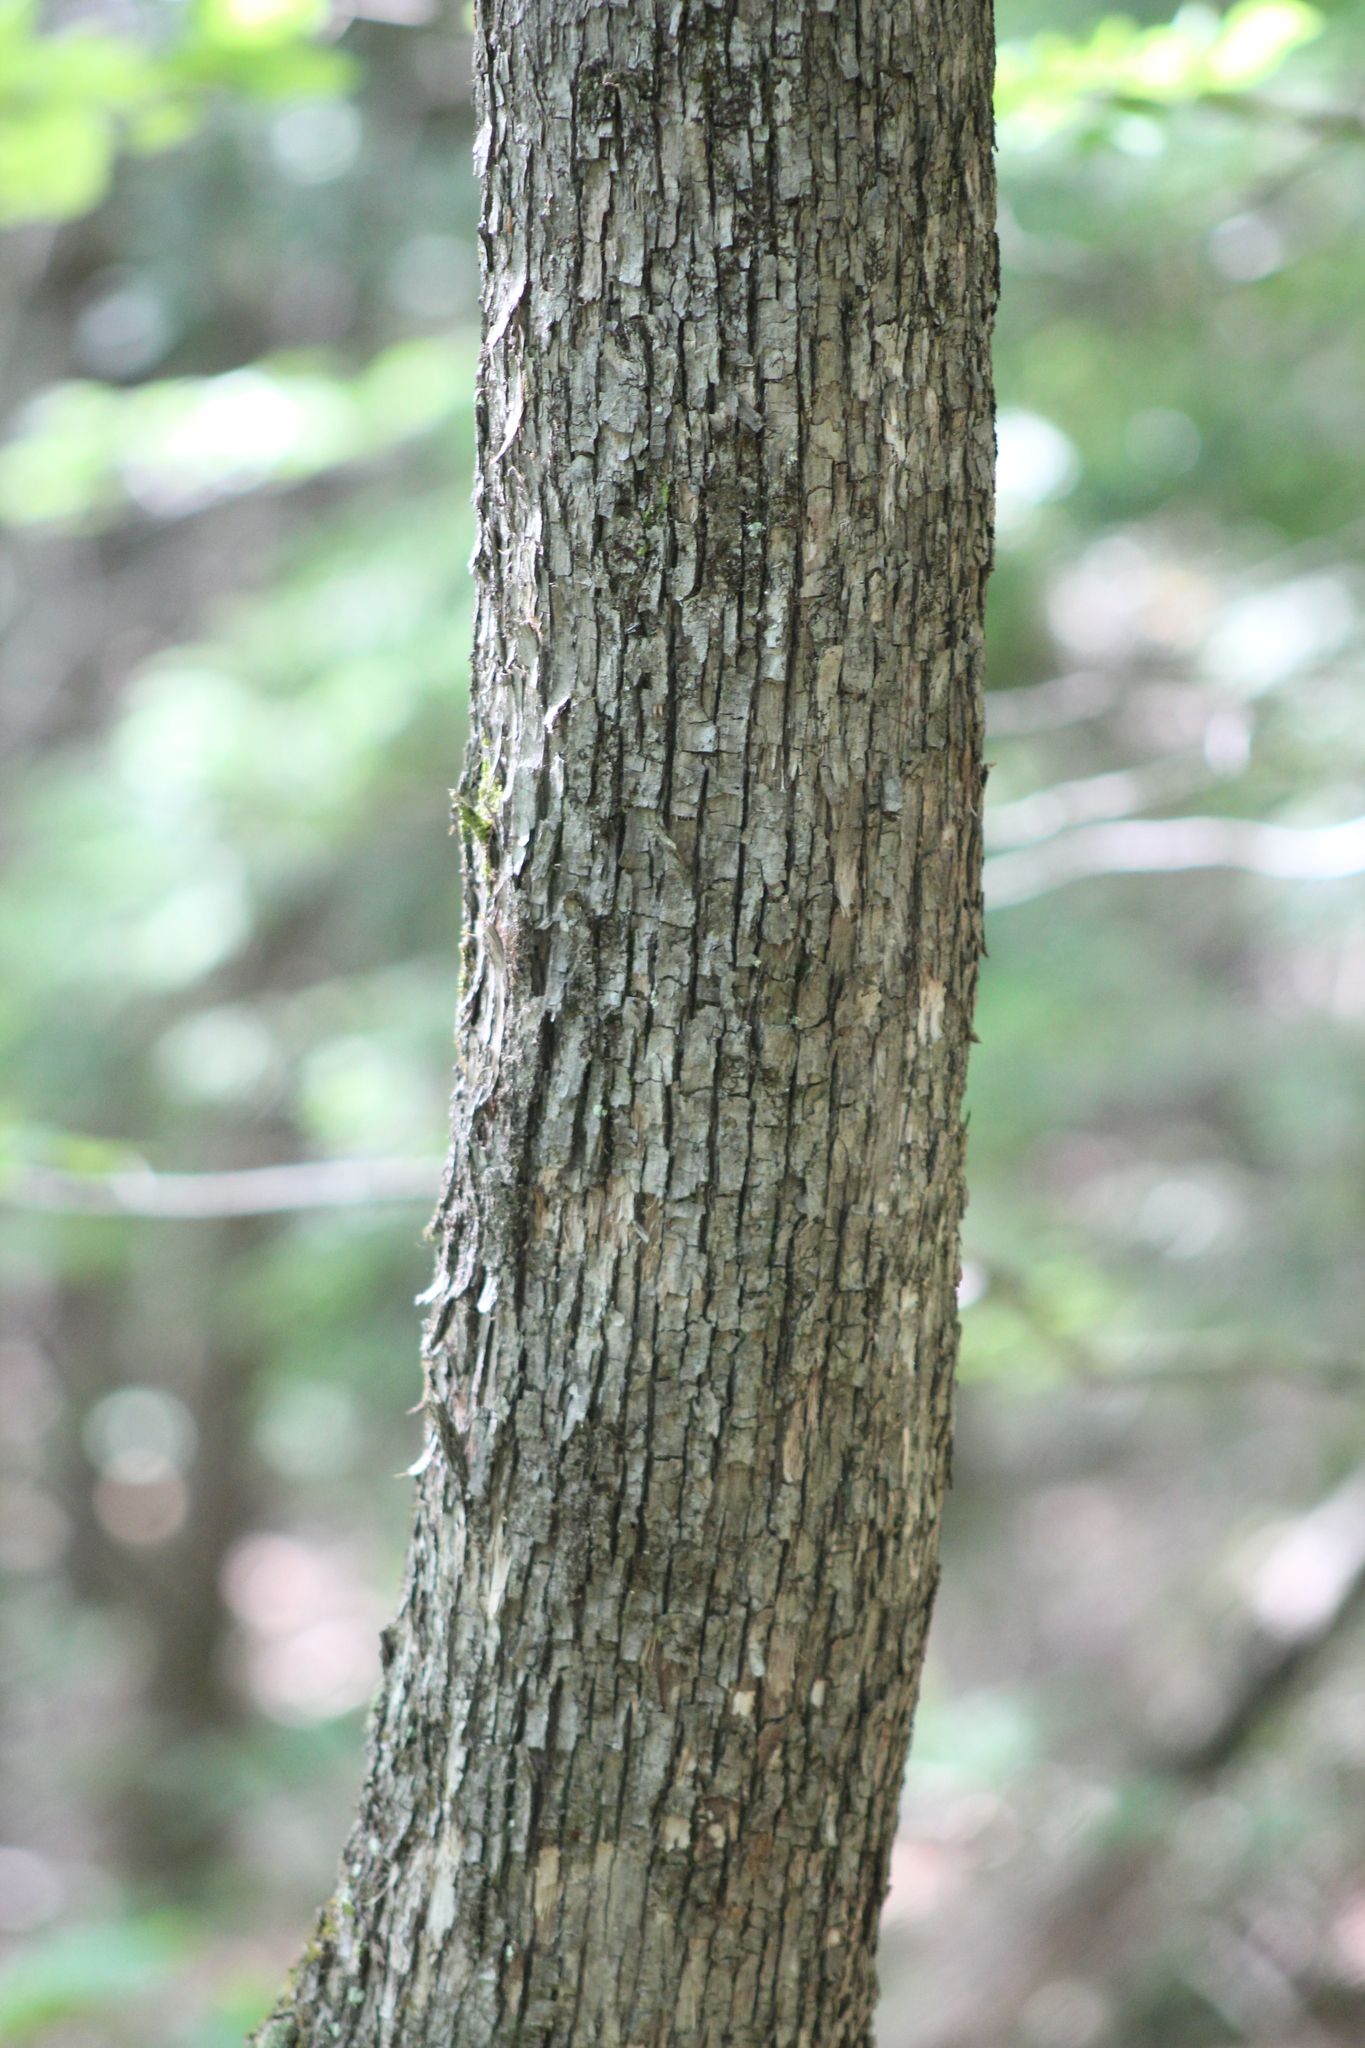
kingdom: Plantae
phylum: Tracheophyta
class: Magnoliopsida
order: Fagales
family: Betulaceae
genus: Ostrya
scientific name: Ostrya virginiana
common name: Ironwood
